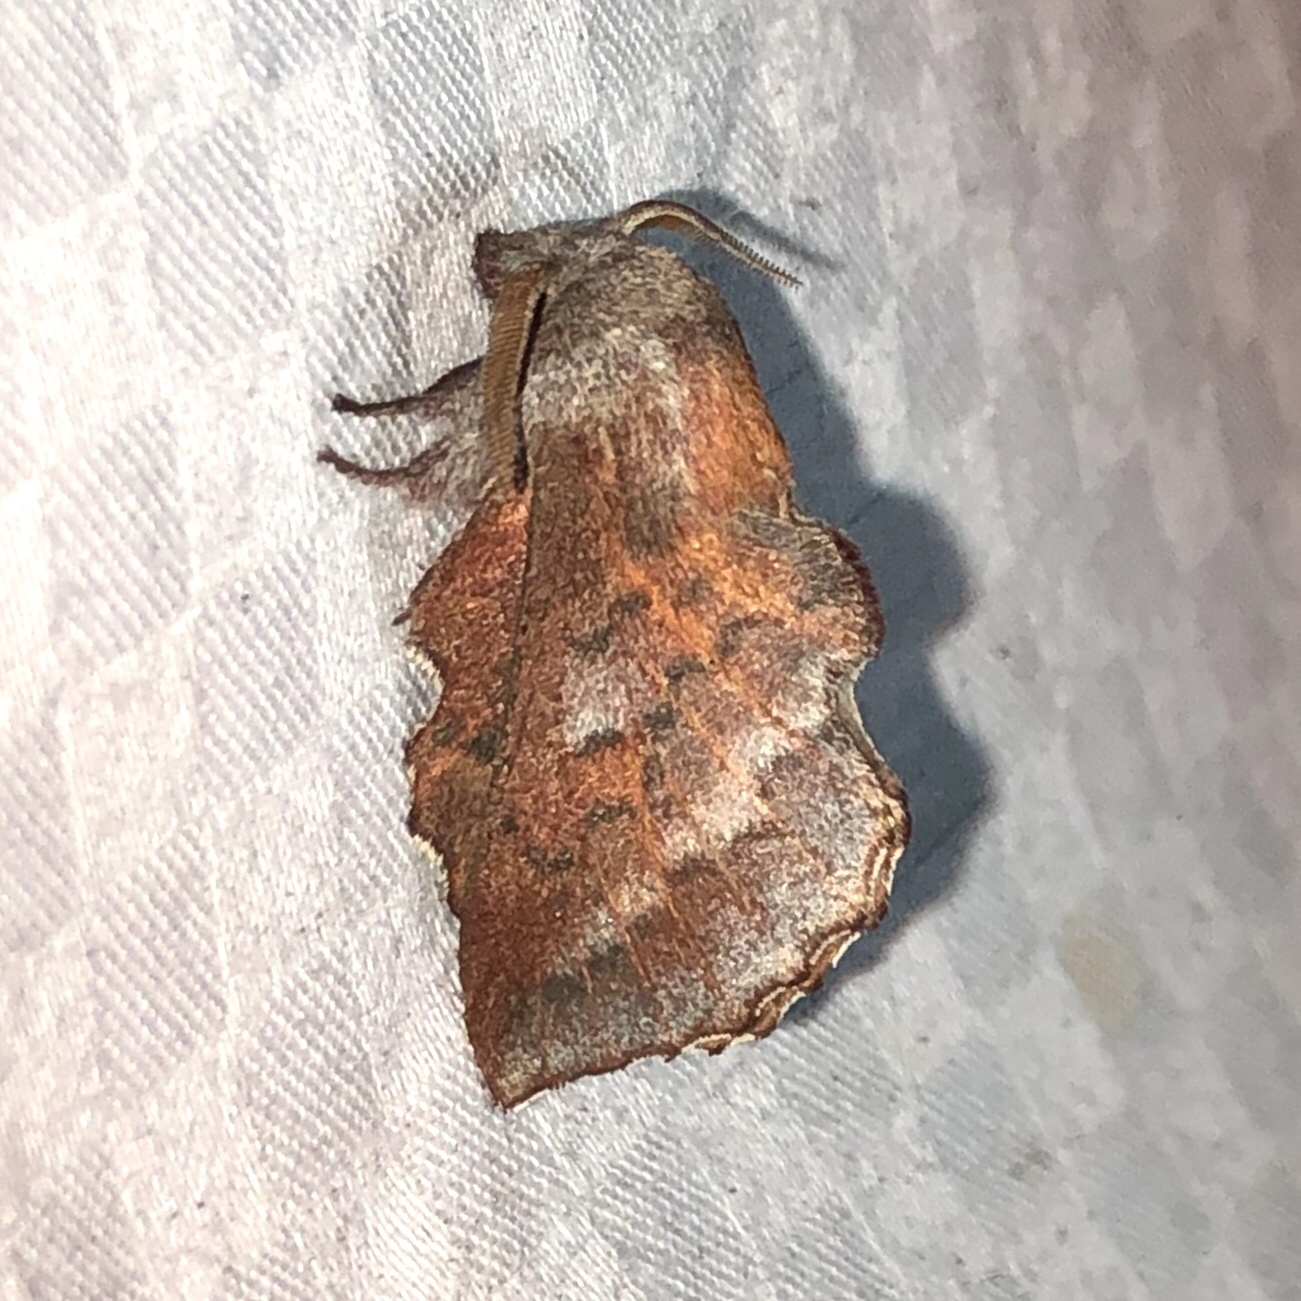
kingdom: Animalia
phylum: Arthropoda
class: Insecta
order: Lepidoptera
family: Lasiocampidae
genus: Phyllodesma
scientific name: Phyllodesma americana
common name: American lappet moth
